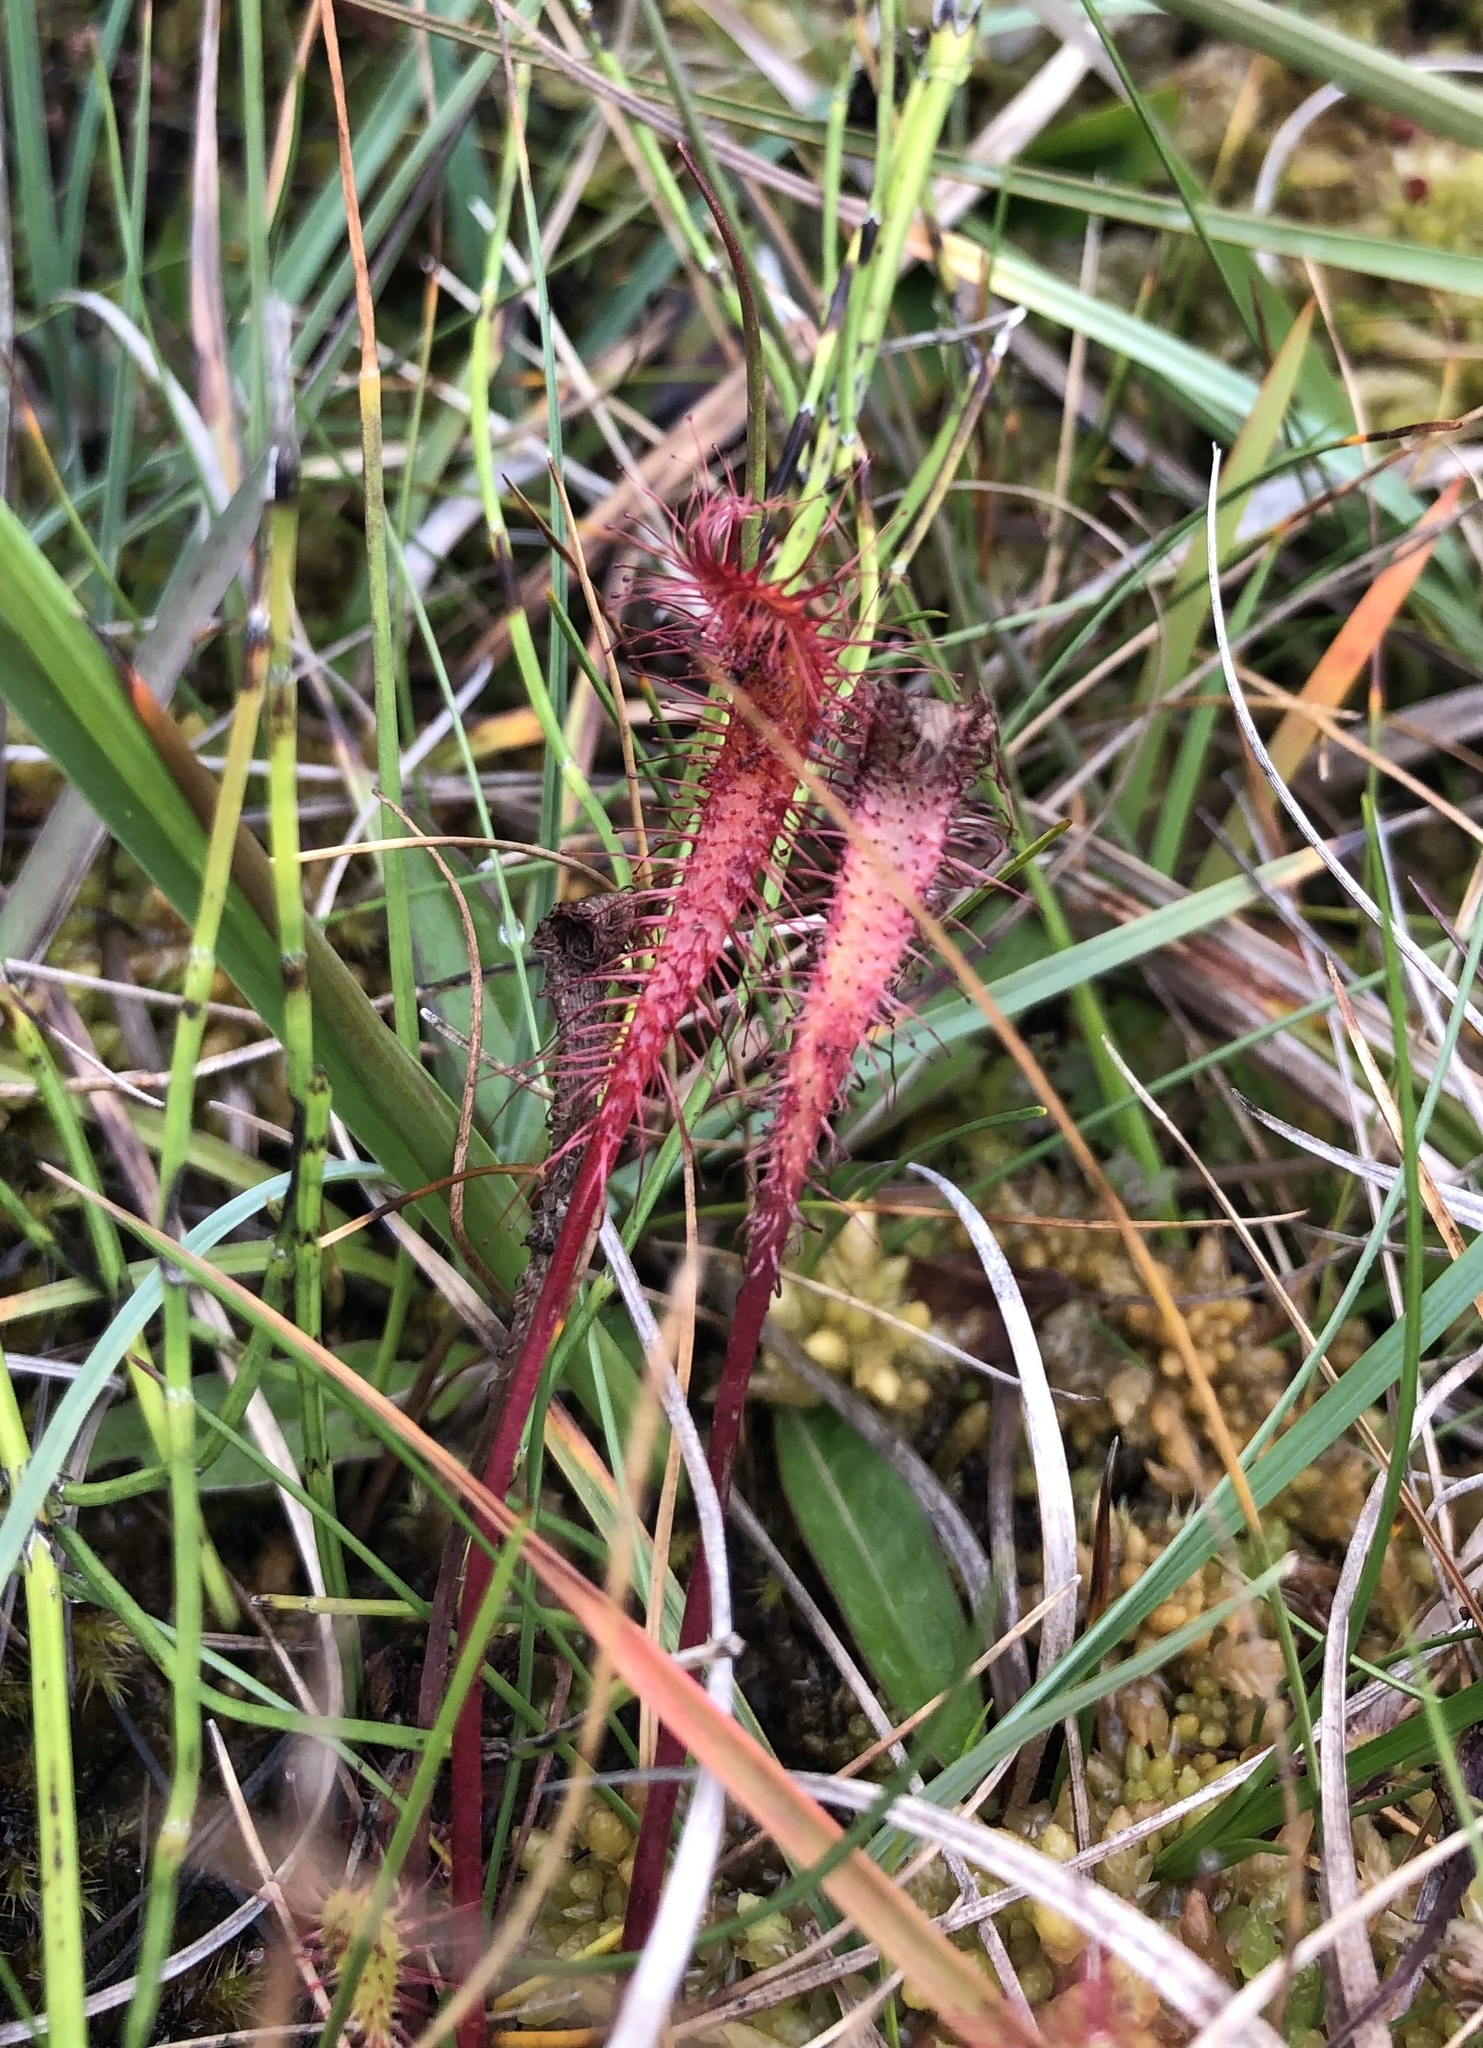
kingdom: Plantae
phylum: Tracheophyta
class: Magnoliopsida
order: Caryophyllales
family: Droseraceae
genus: Drosera
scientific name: Drosera anglica
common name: Great sundew
